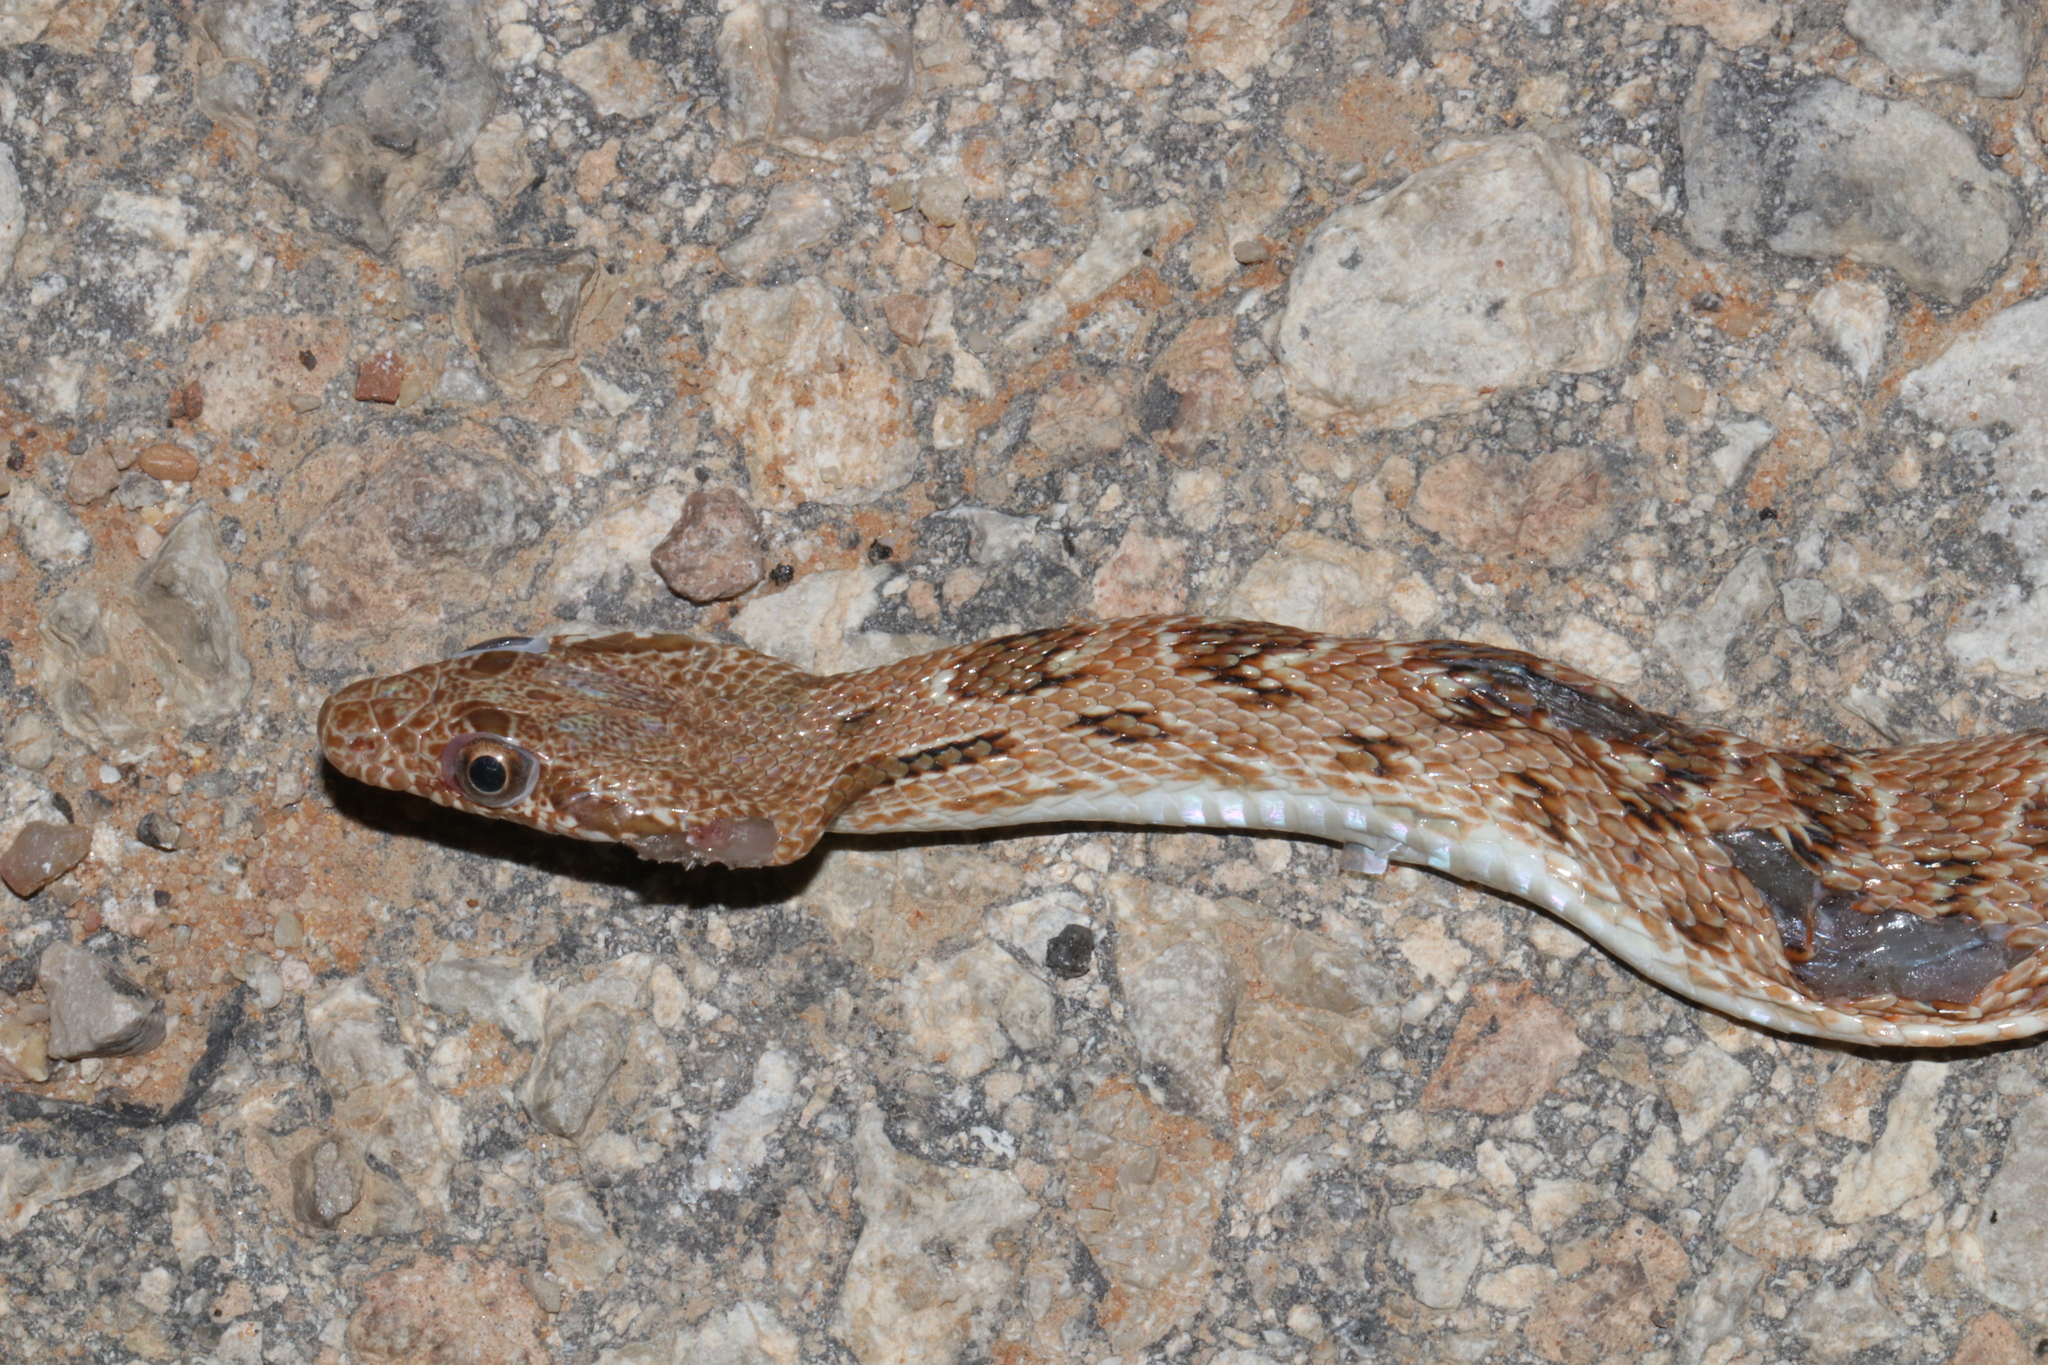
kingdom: Animalia
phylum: Chordata
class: Squamata
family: Colubridae
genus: Spalerosophis
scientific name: Spalerosophis diadema
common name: Diadem snake
